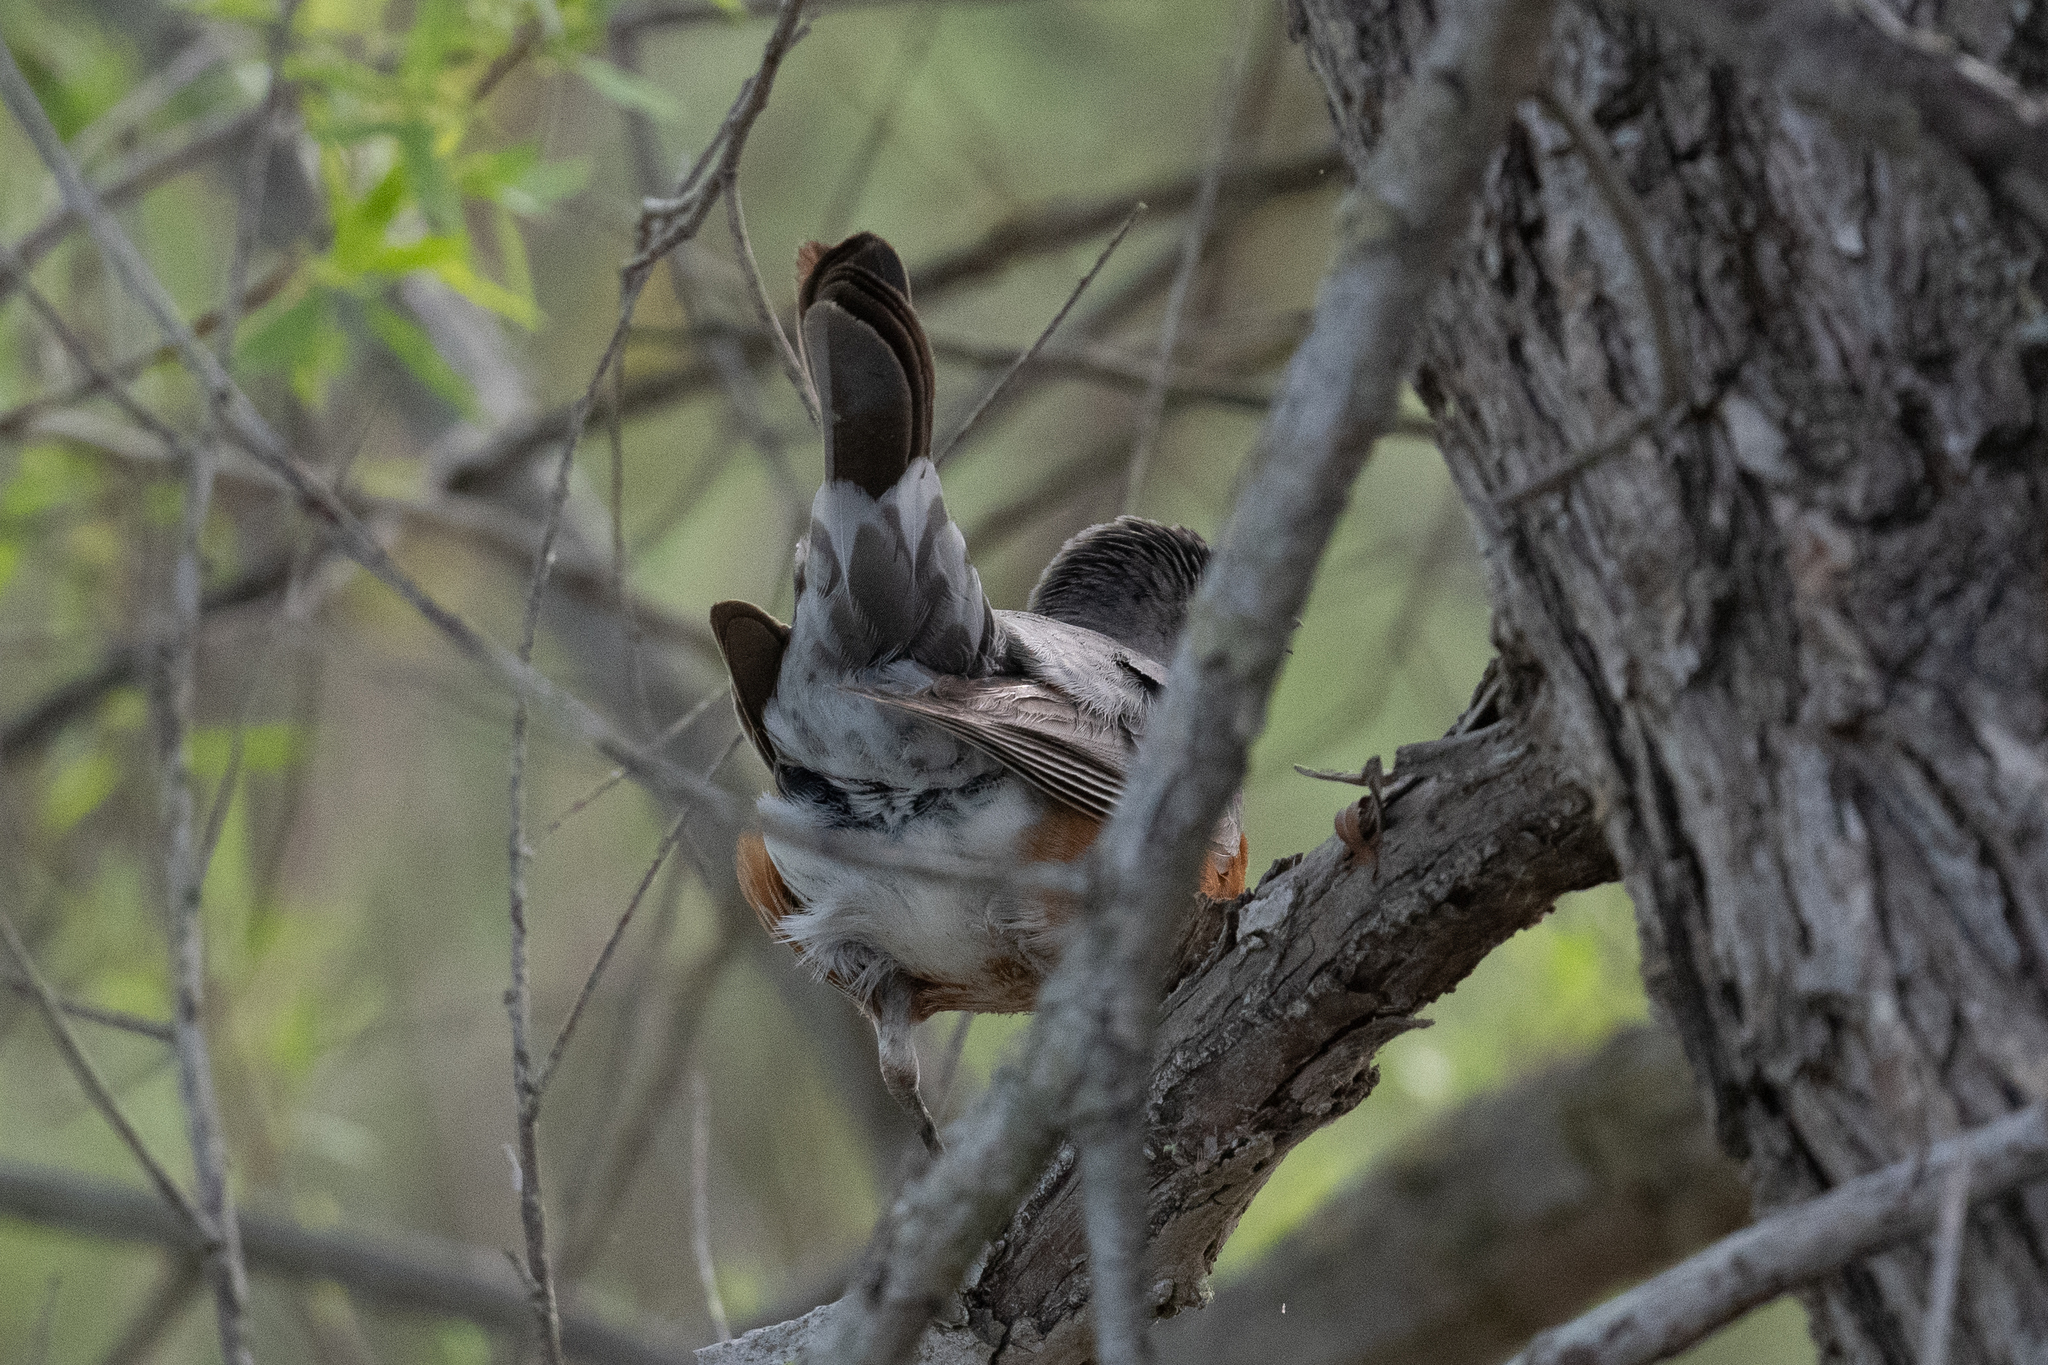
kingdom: Animalia
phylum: Chordata
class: Aves
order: Passeriformes
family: Turdidae
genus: Turdus
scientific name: Turdus migratorius
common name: American robin
